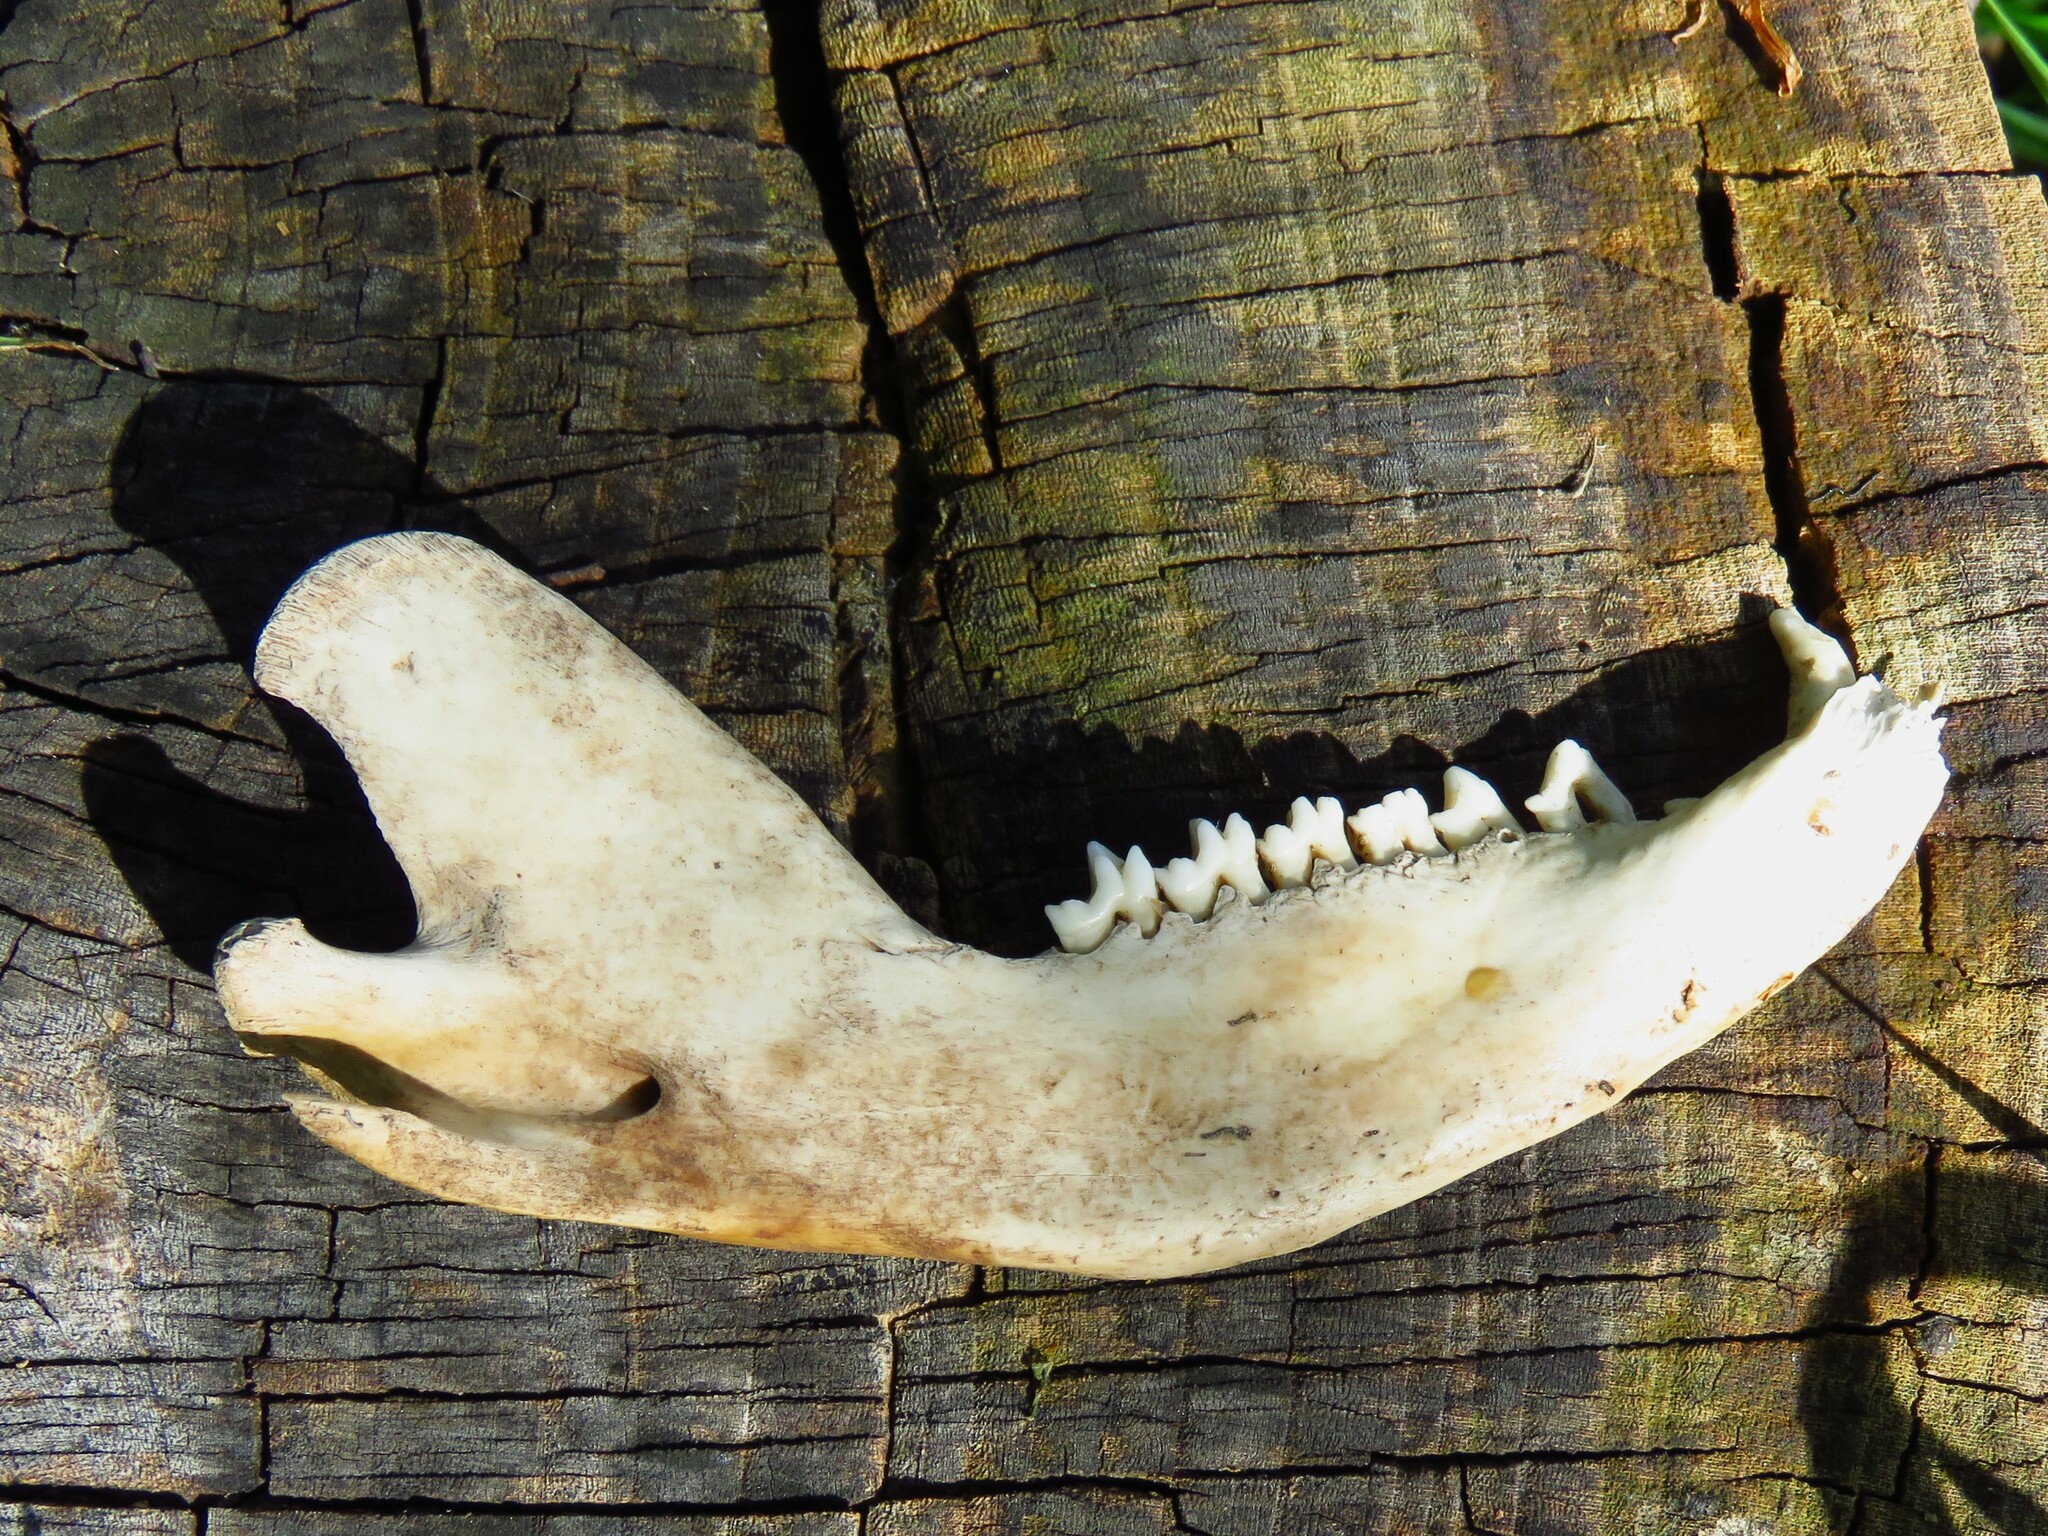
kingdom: Animalia
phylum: Chordata
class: Mammalia
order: Didelphimorphia
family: Didelphidae
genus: Didelphis
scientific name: Didelphis virginiana
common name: Virginia opossum
